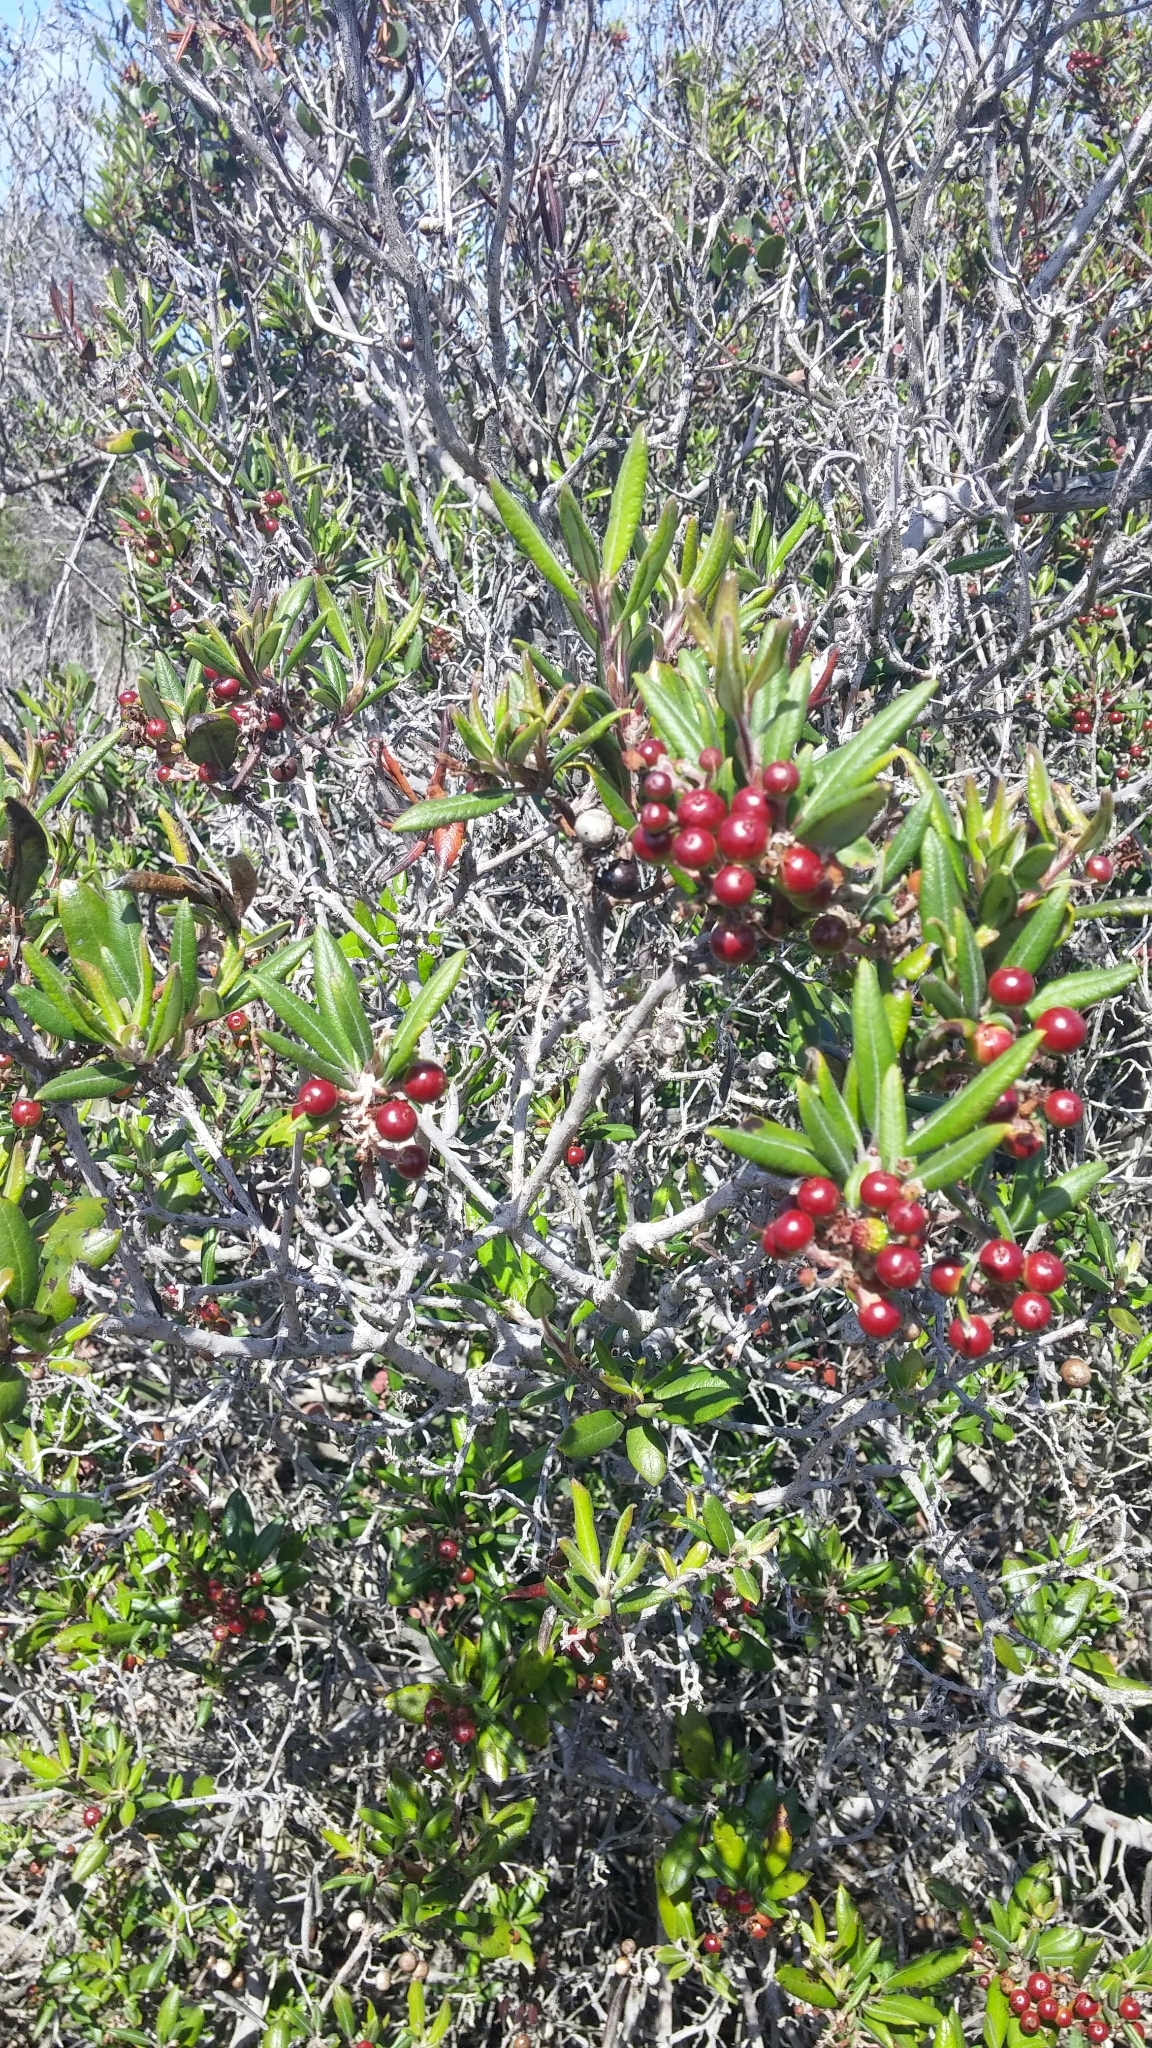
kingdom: Plantae
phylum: Tracheophyta
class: Magnoliopsida
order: Ericales
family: Ericaceae
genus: Arctostaphylos
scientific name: Arctostaphylos bicolor
